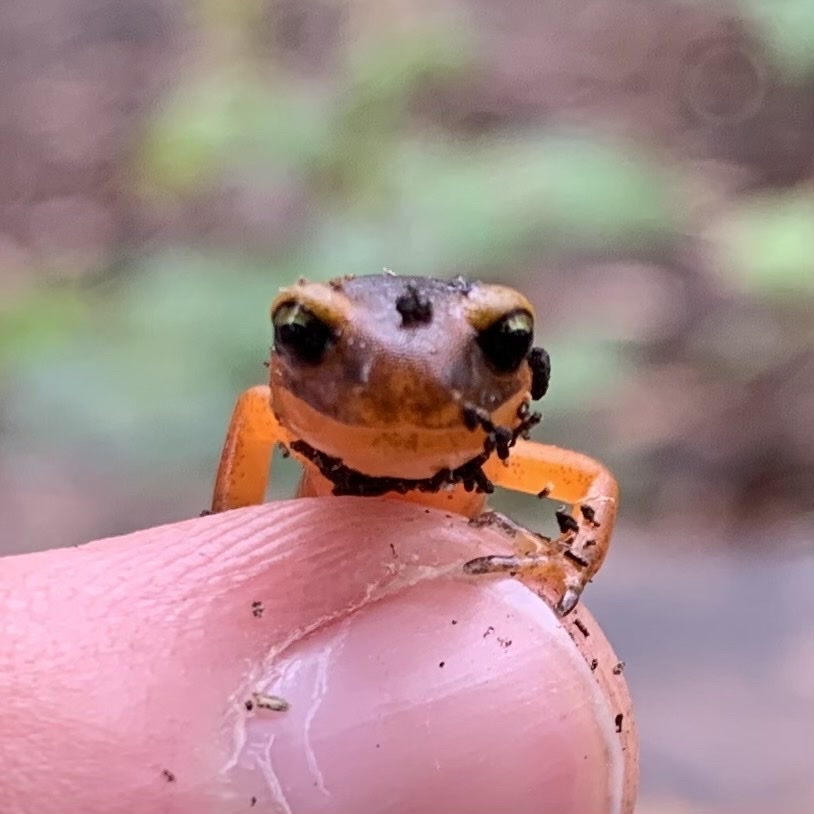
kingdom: Animalia
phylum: Chordata
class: Amphibia
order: Caudata
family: Plethodontidae
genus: Ensatina
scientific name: Ensatina eschscholtzii
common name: Ensatina
